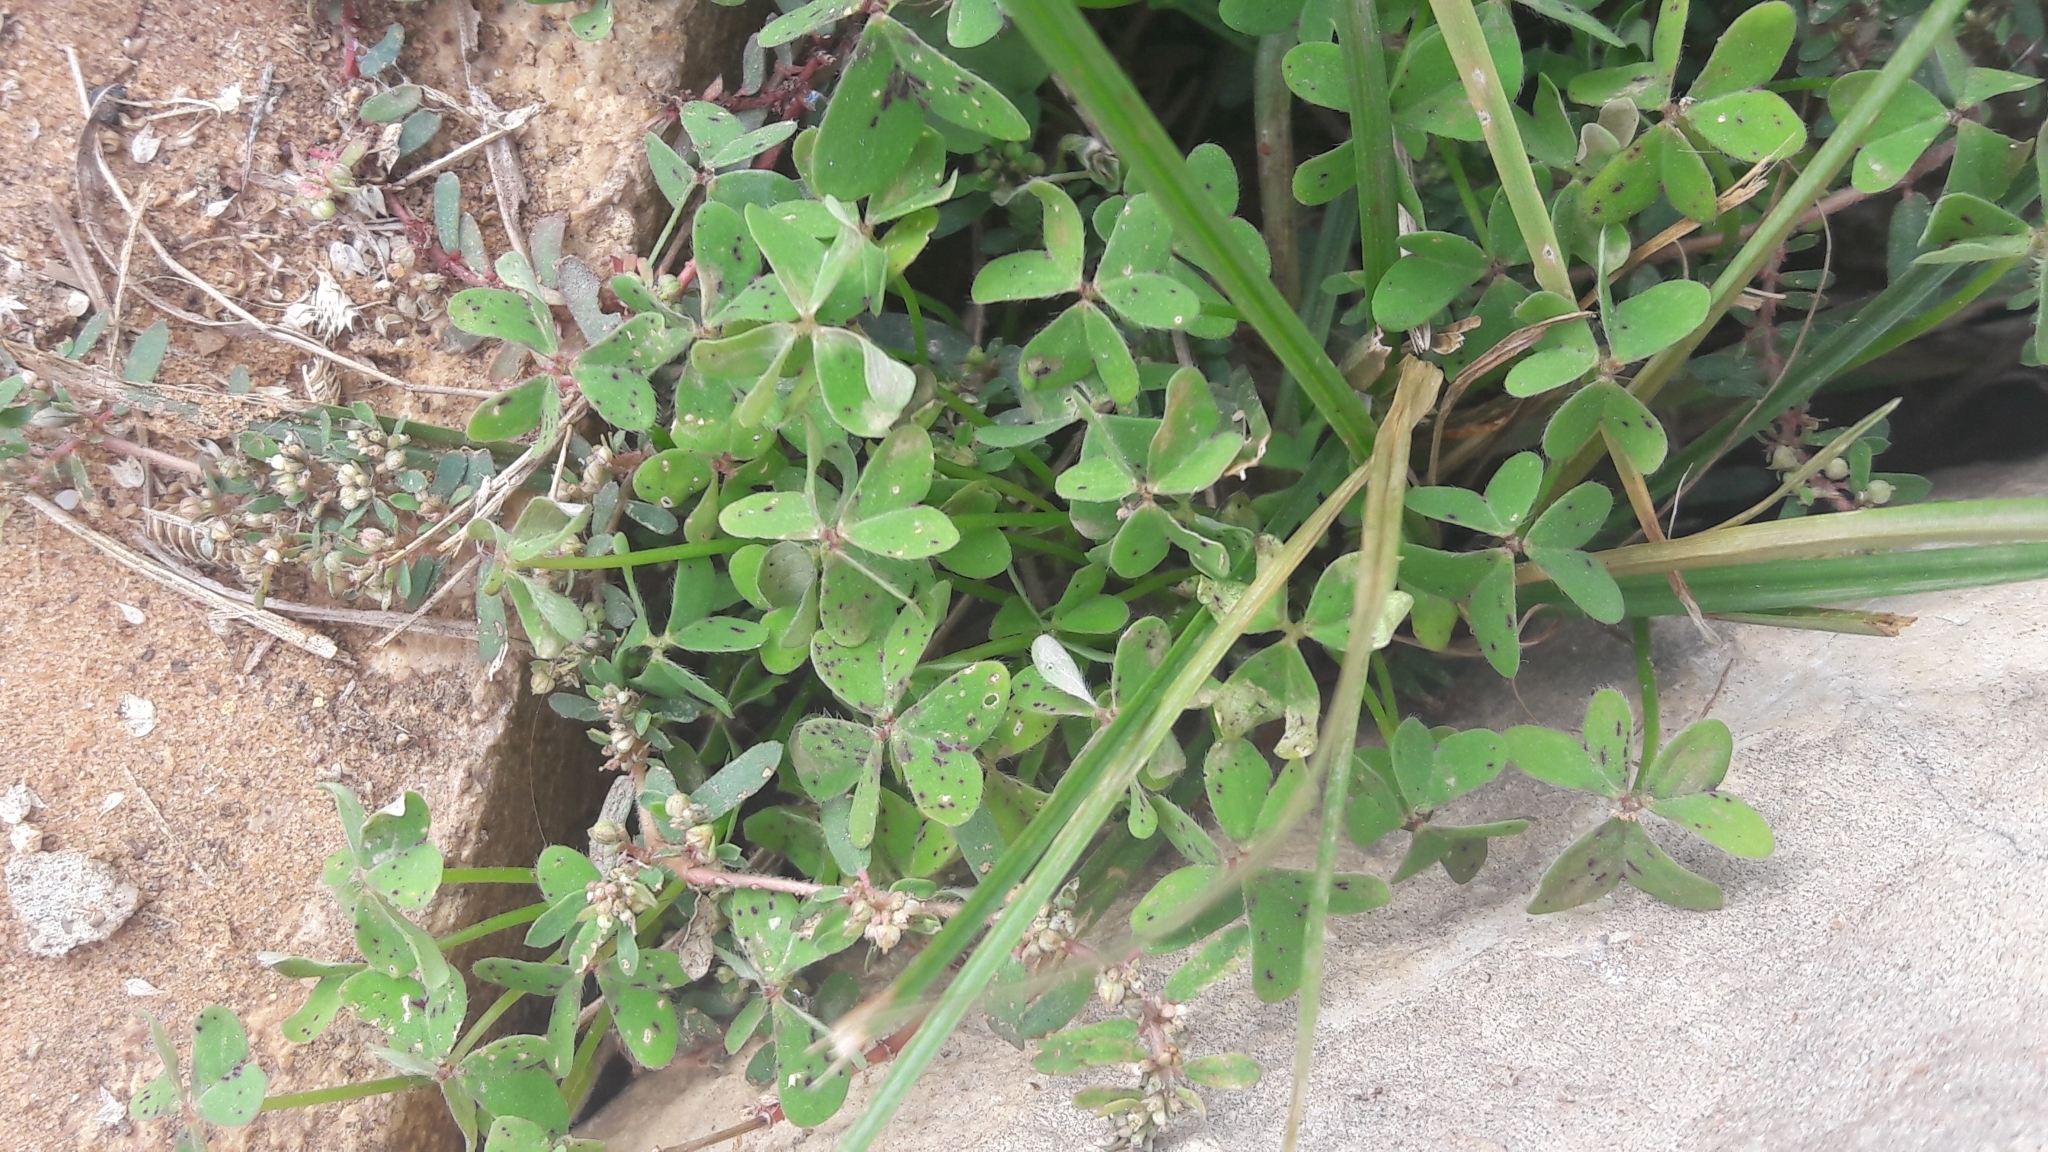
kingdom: Plantae
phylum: Tracheophyta
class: Magnoliopsida
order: Oxalidales
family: Oxalidaceae
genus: Oxalis
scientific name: Oxalis pes-caprae
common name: Bermuda-buttercup
